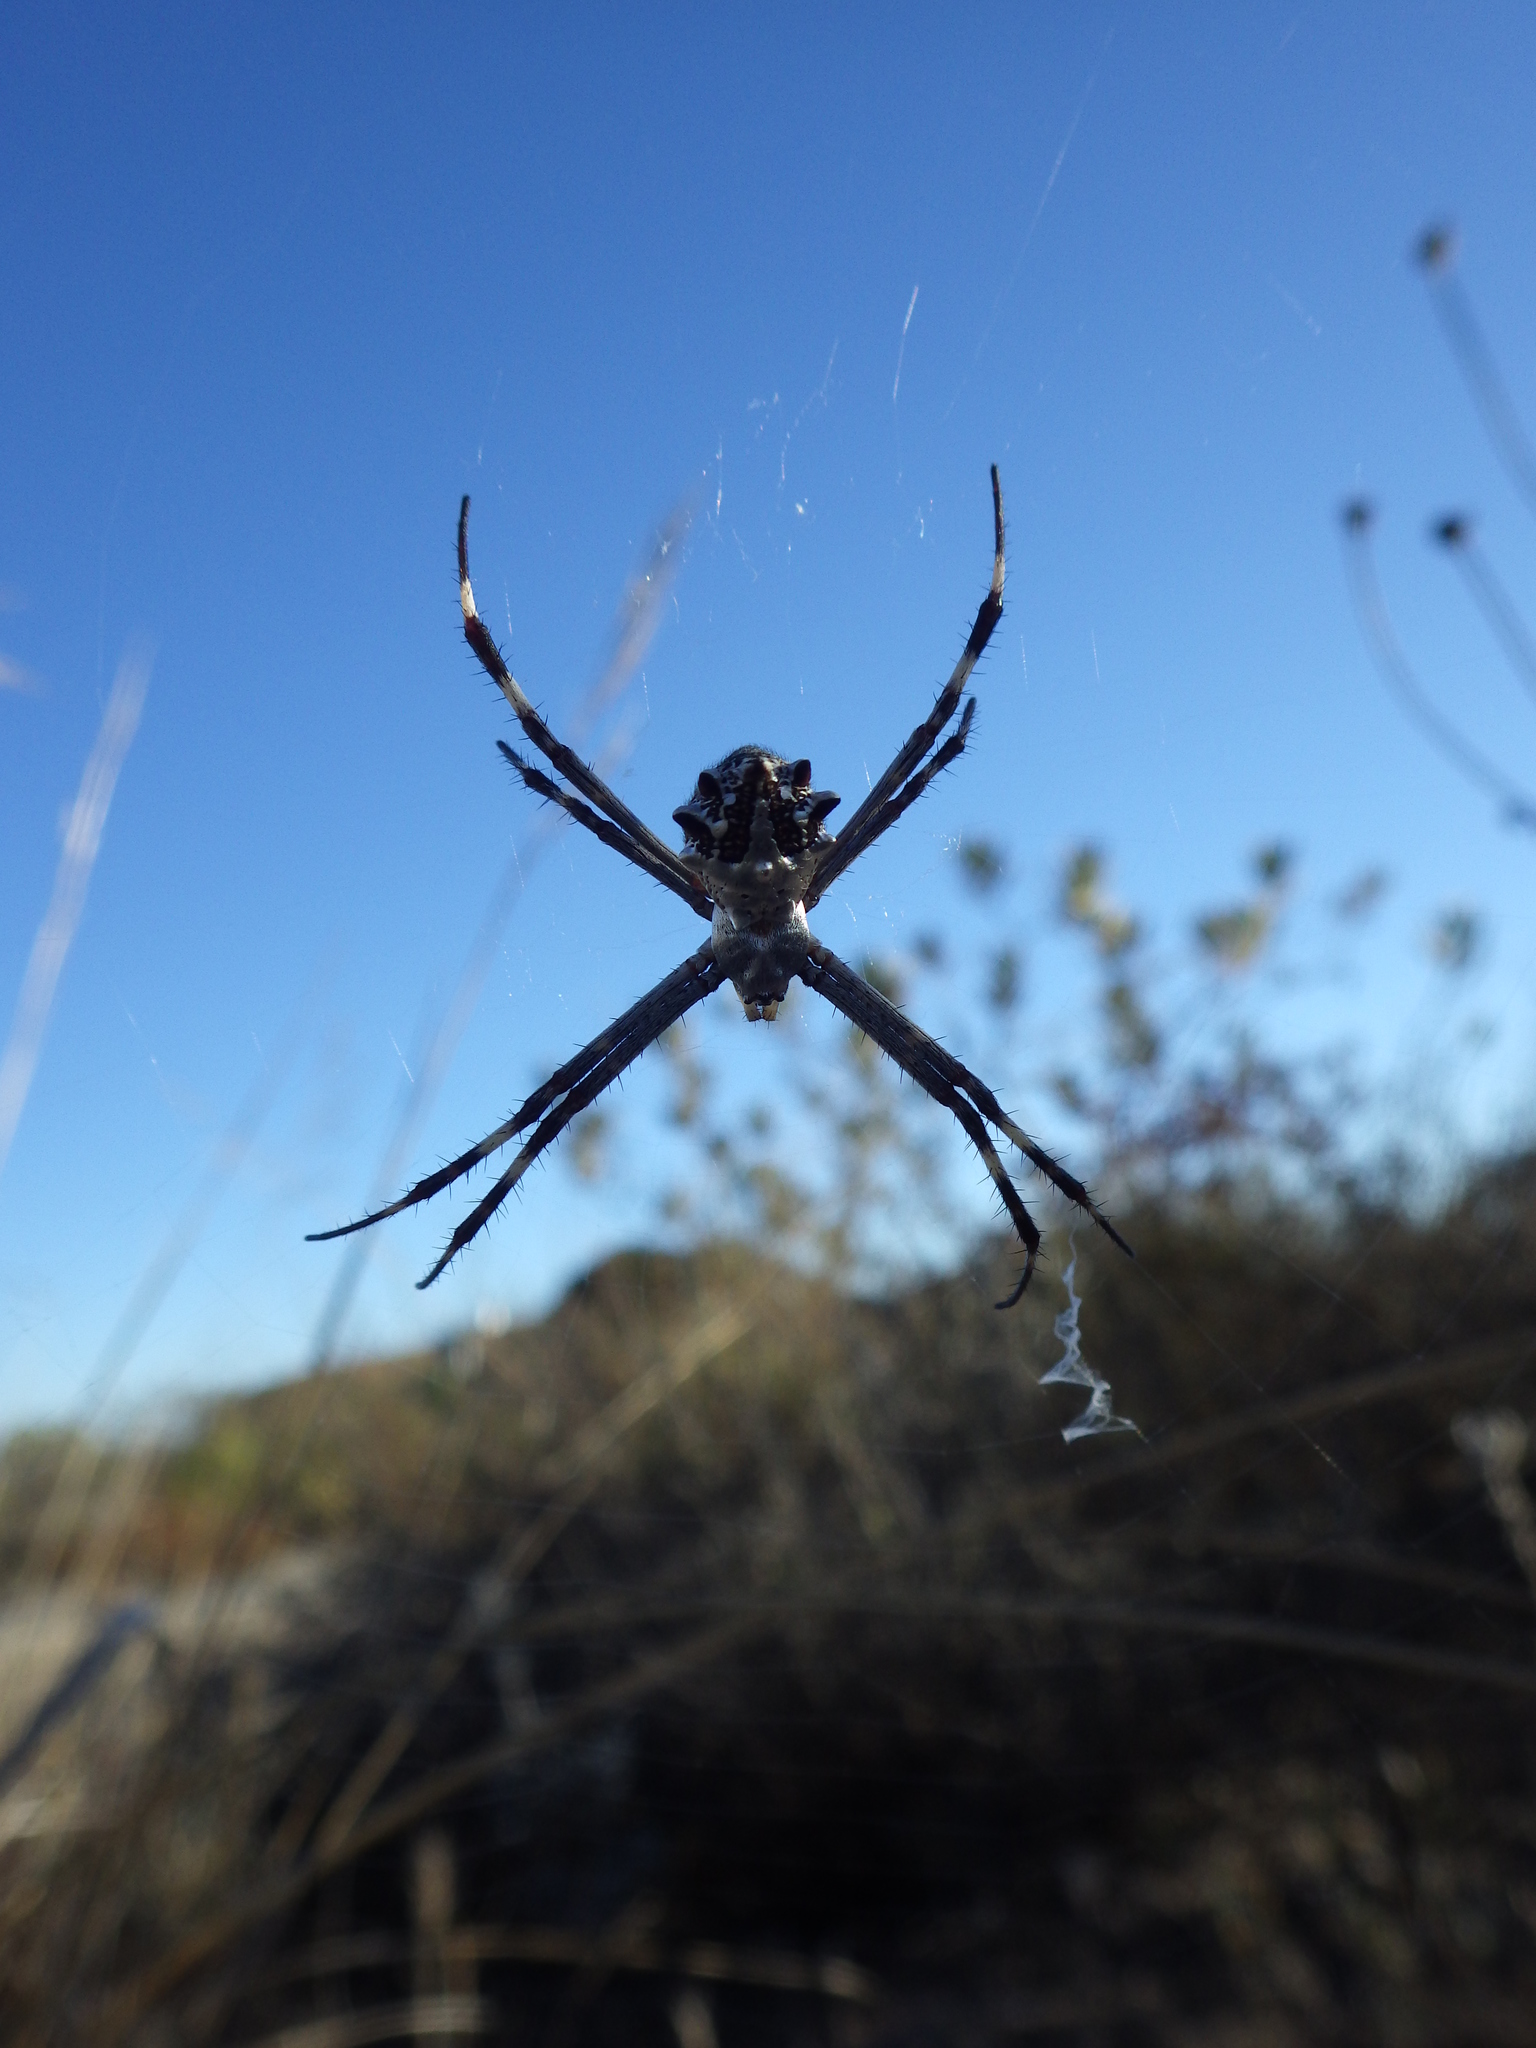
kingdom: Animalia
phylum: Arthropoda
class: Arachnida
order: Araneae
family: Araneidae
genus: Argiope
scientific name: Argiope argentata
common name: Orb weavers
